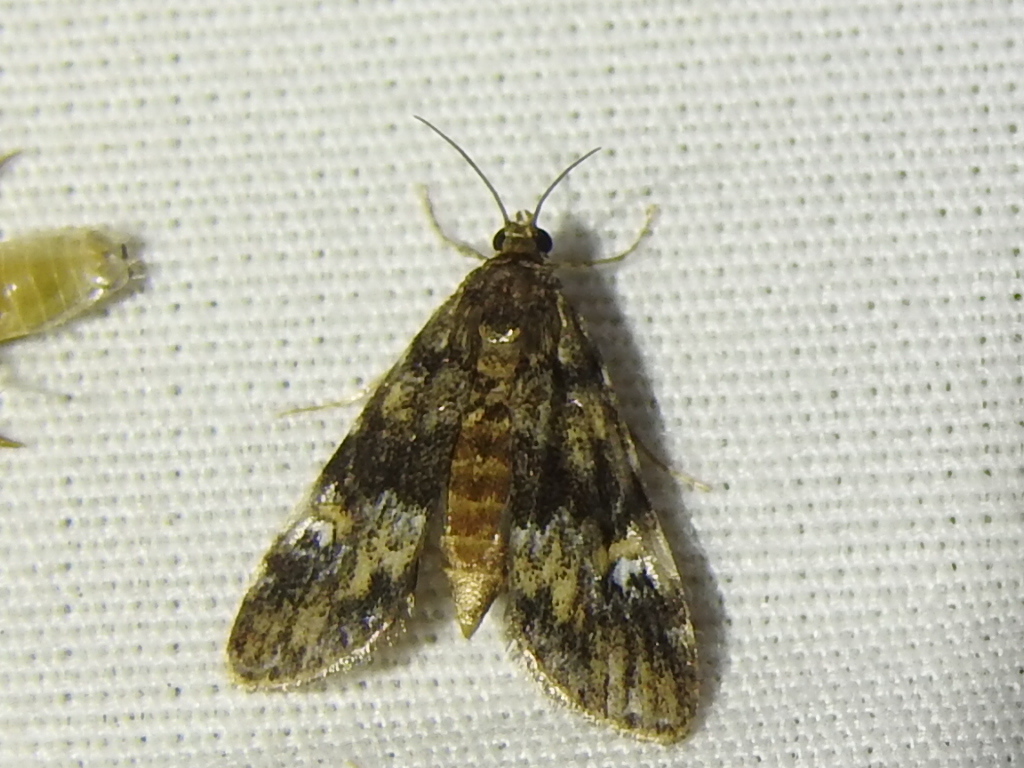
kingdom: Animalia
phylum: Arthropoda
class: Insecta
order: Lepidoptera
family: Crambidae
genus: Elophila
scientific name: Elophila obliteralis
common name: Waterlily leafcutter moth
